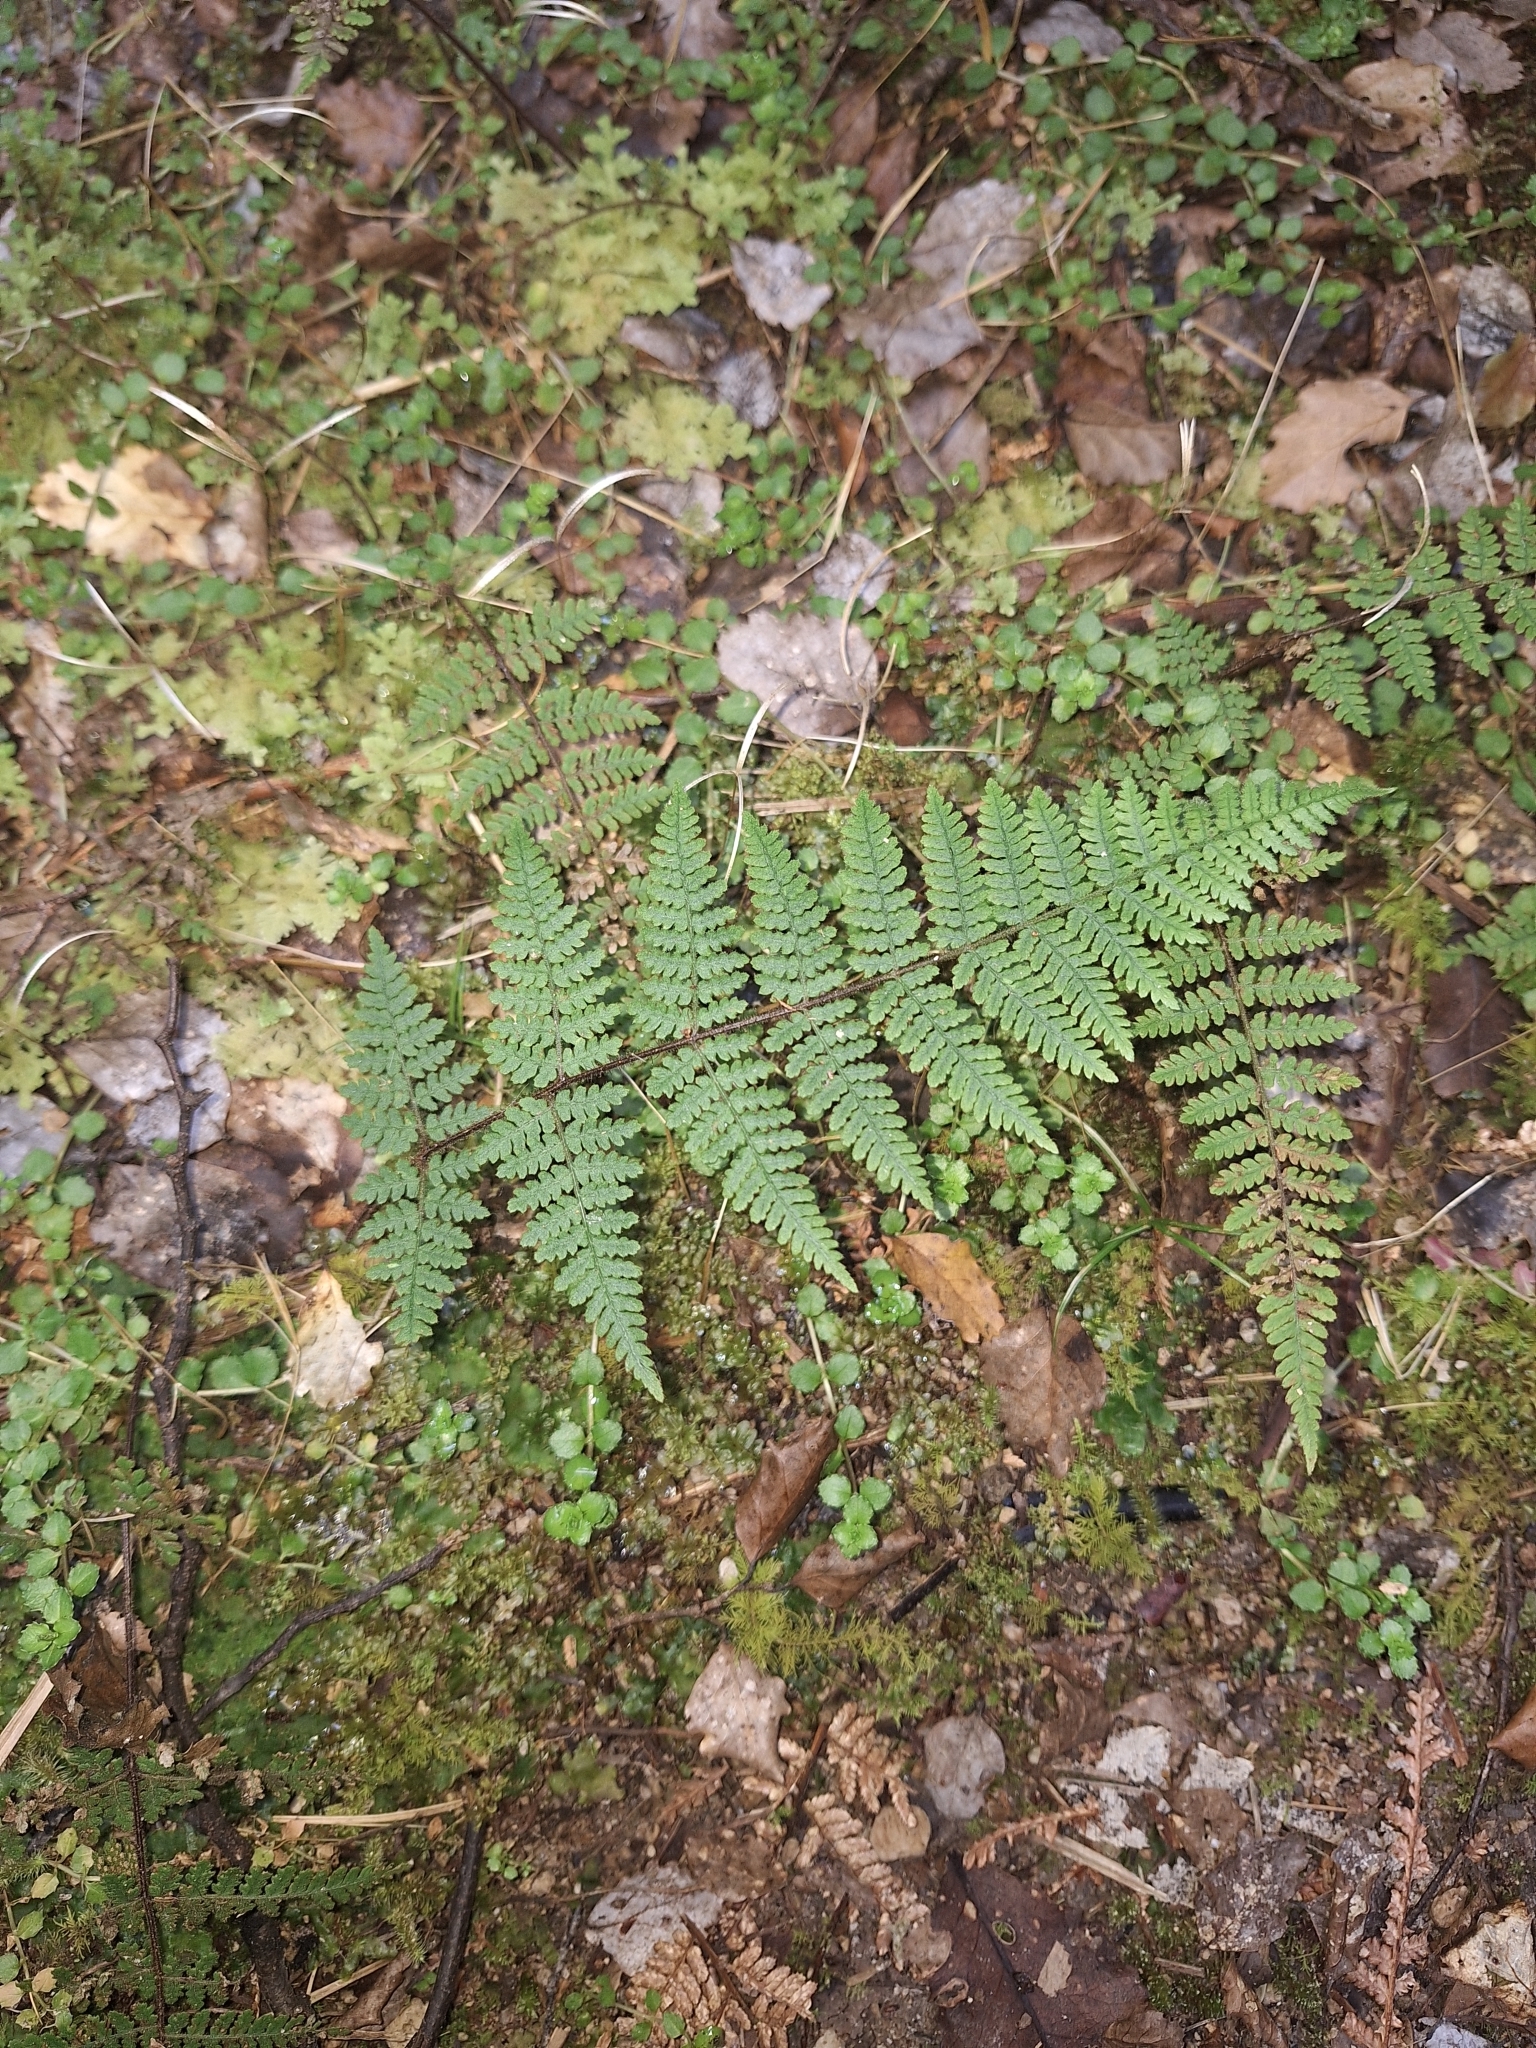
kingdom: Plantae
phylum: Tracheophyta
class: Polypodiopsida
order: Polypodiales
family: Dennstaedtiaceae
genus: Hypolepis
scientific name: Hypolepis rugosula
